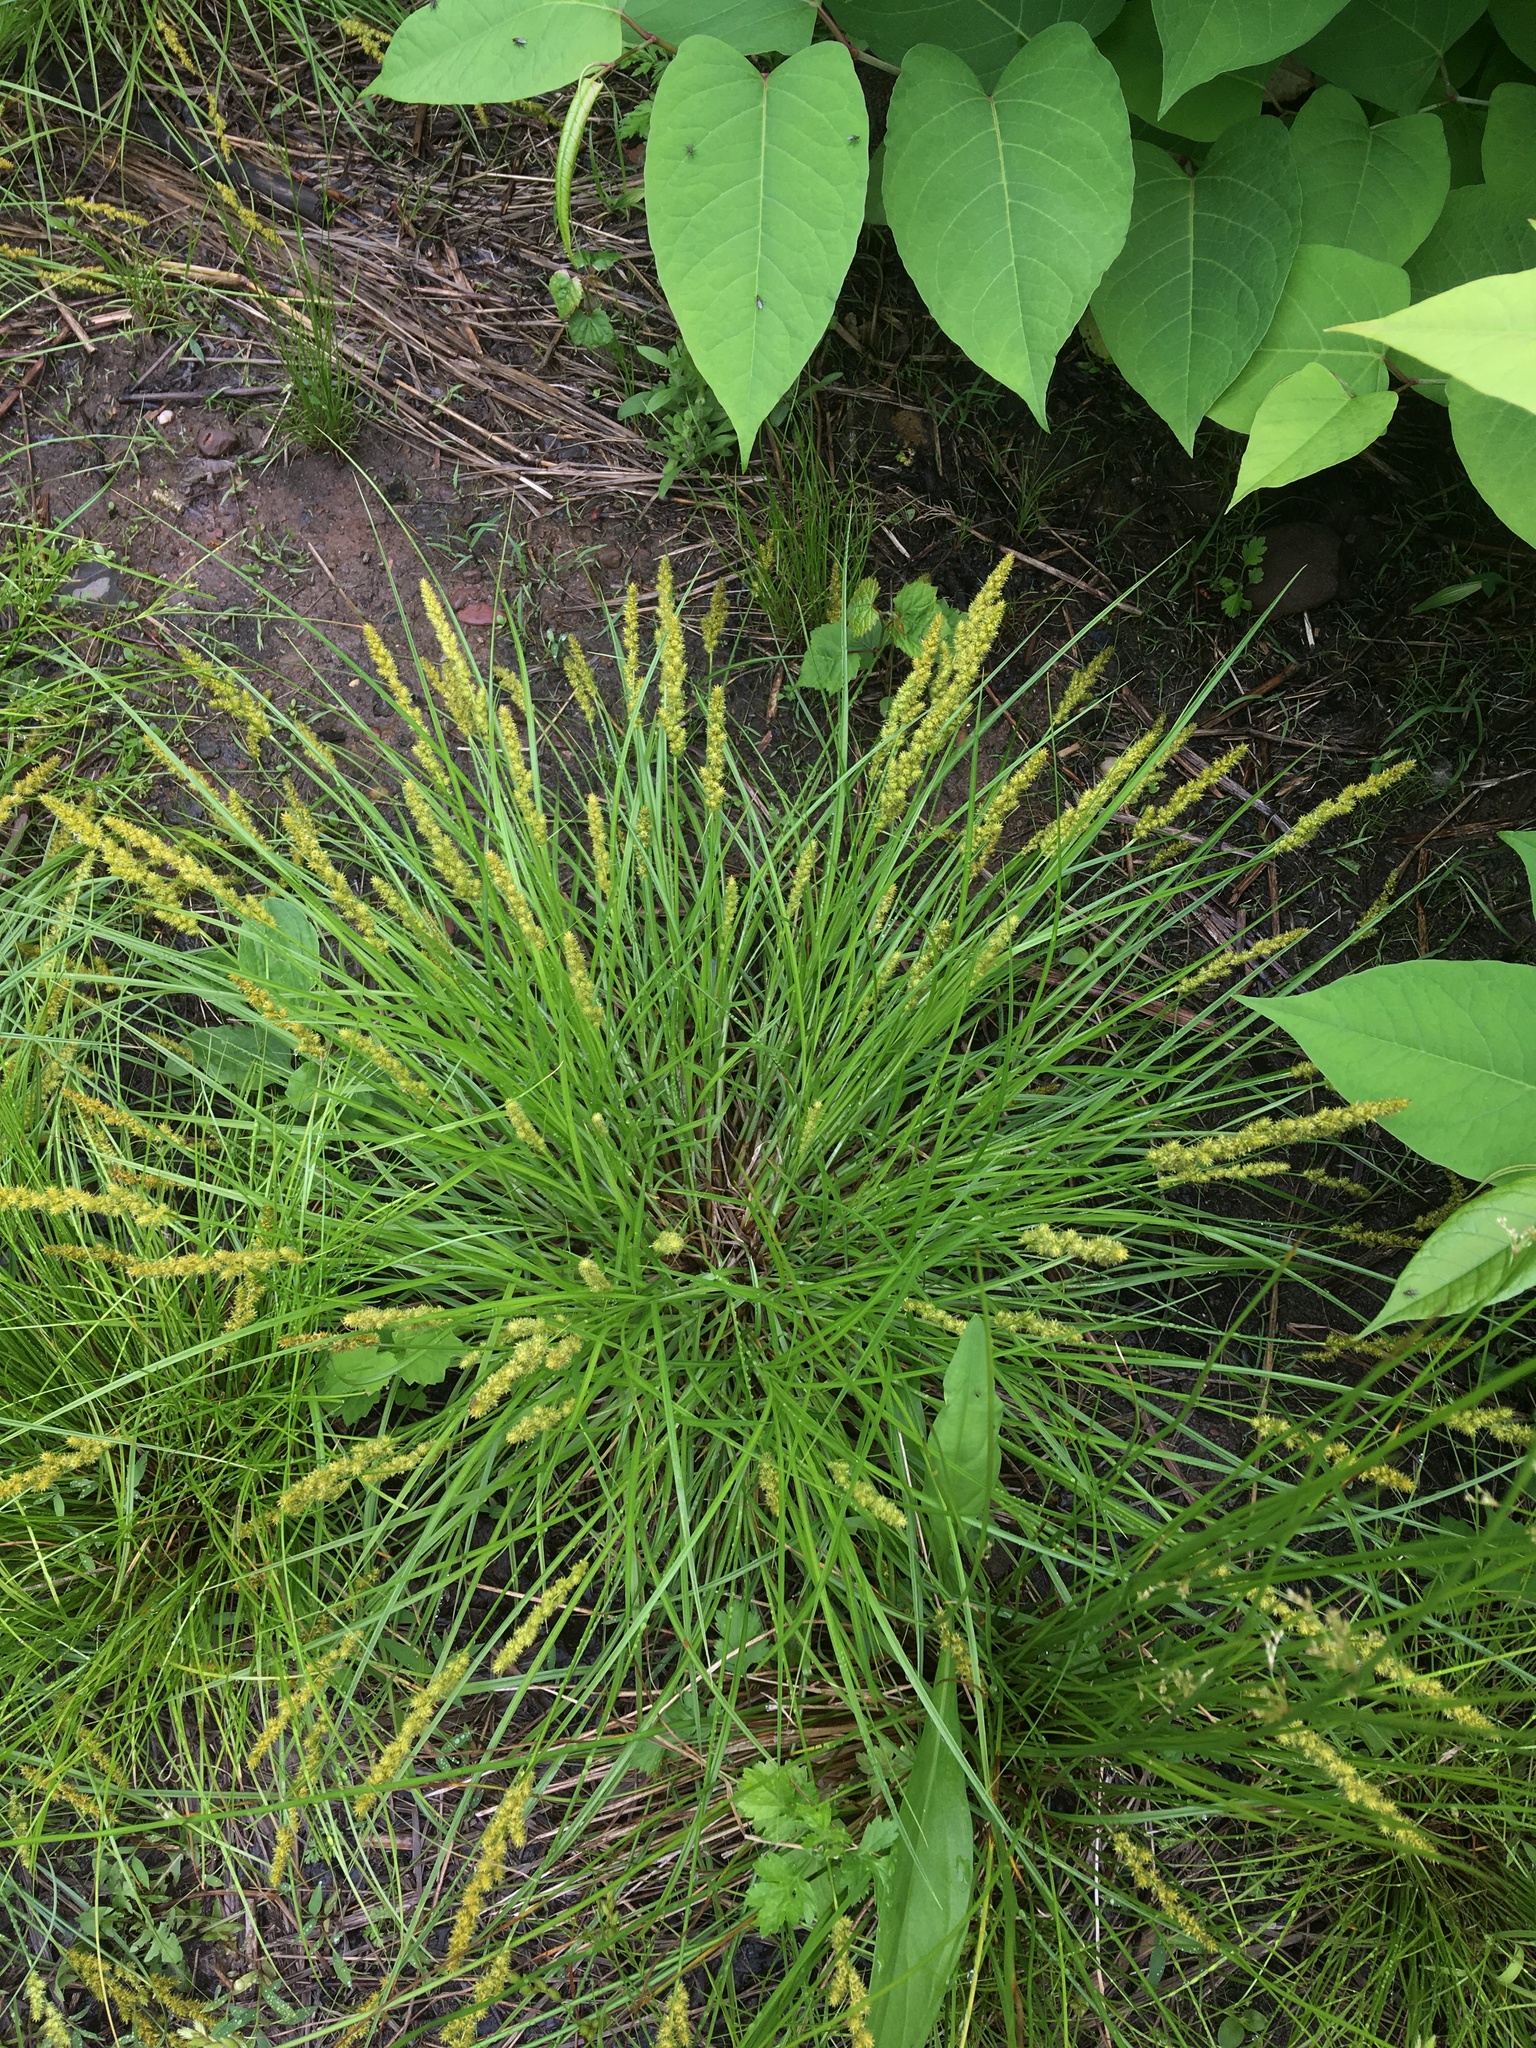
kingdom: Plantae
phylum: Tracheophyta
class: Liliopsida
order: Poales
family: Cyperaceae
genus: Carex
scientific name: Carex vulpinoidea
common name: American fox-sedge
